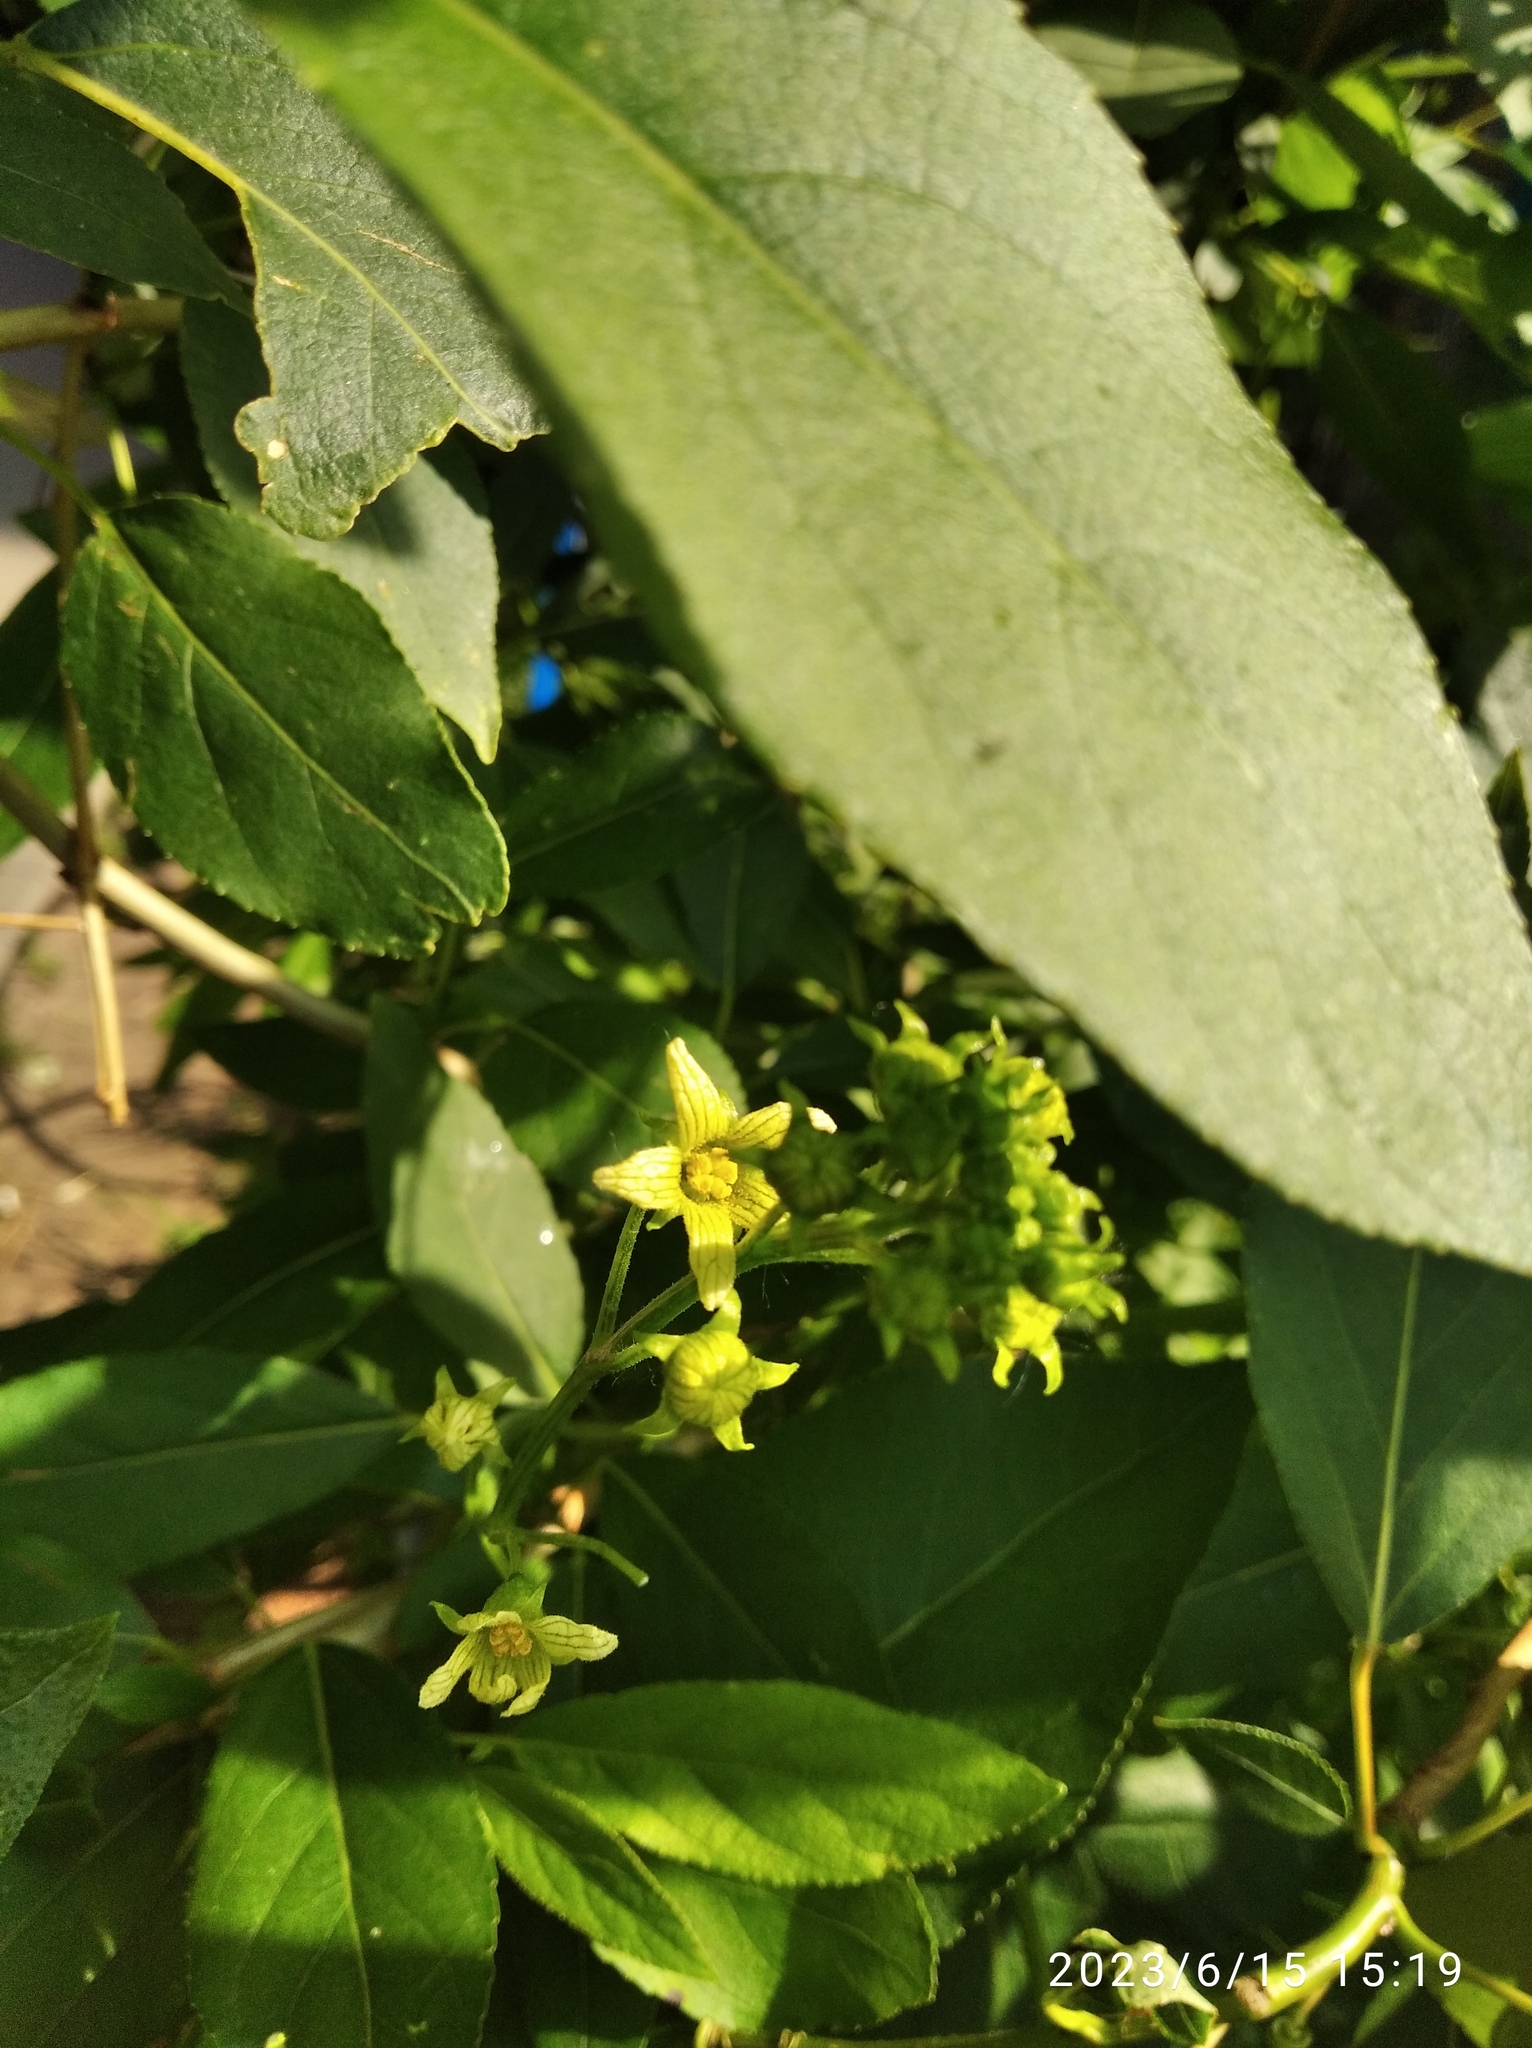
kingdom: Plantae
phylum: Tracheophyta
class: Magnoliopsida
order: Cucurbitales
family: Cucurbitaceae
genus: Bryonia
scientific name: Bryonia alba
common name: White bryony
